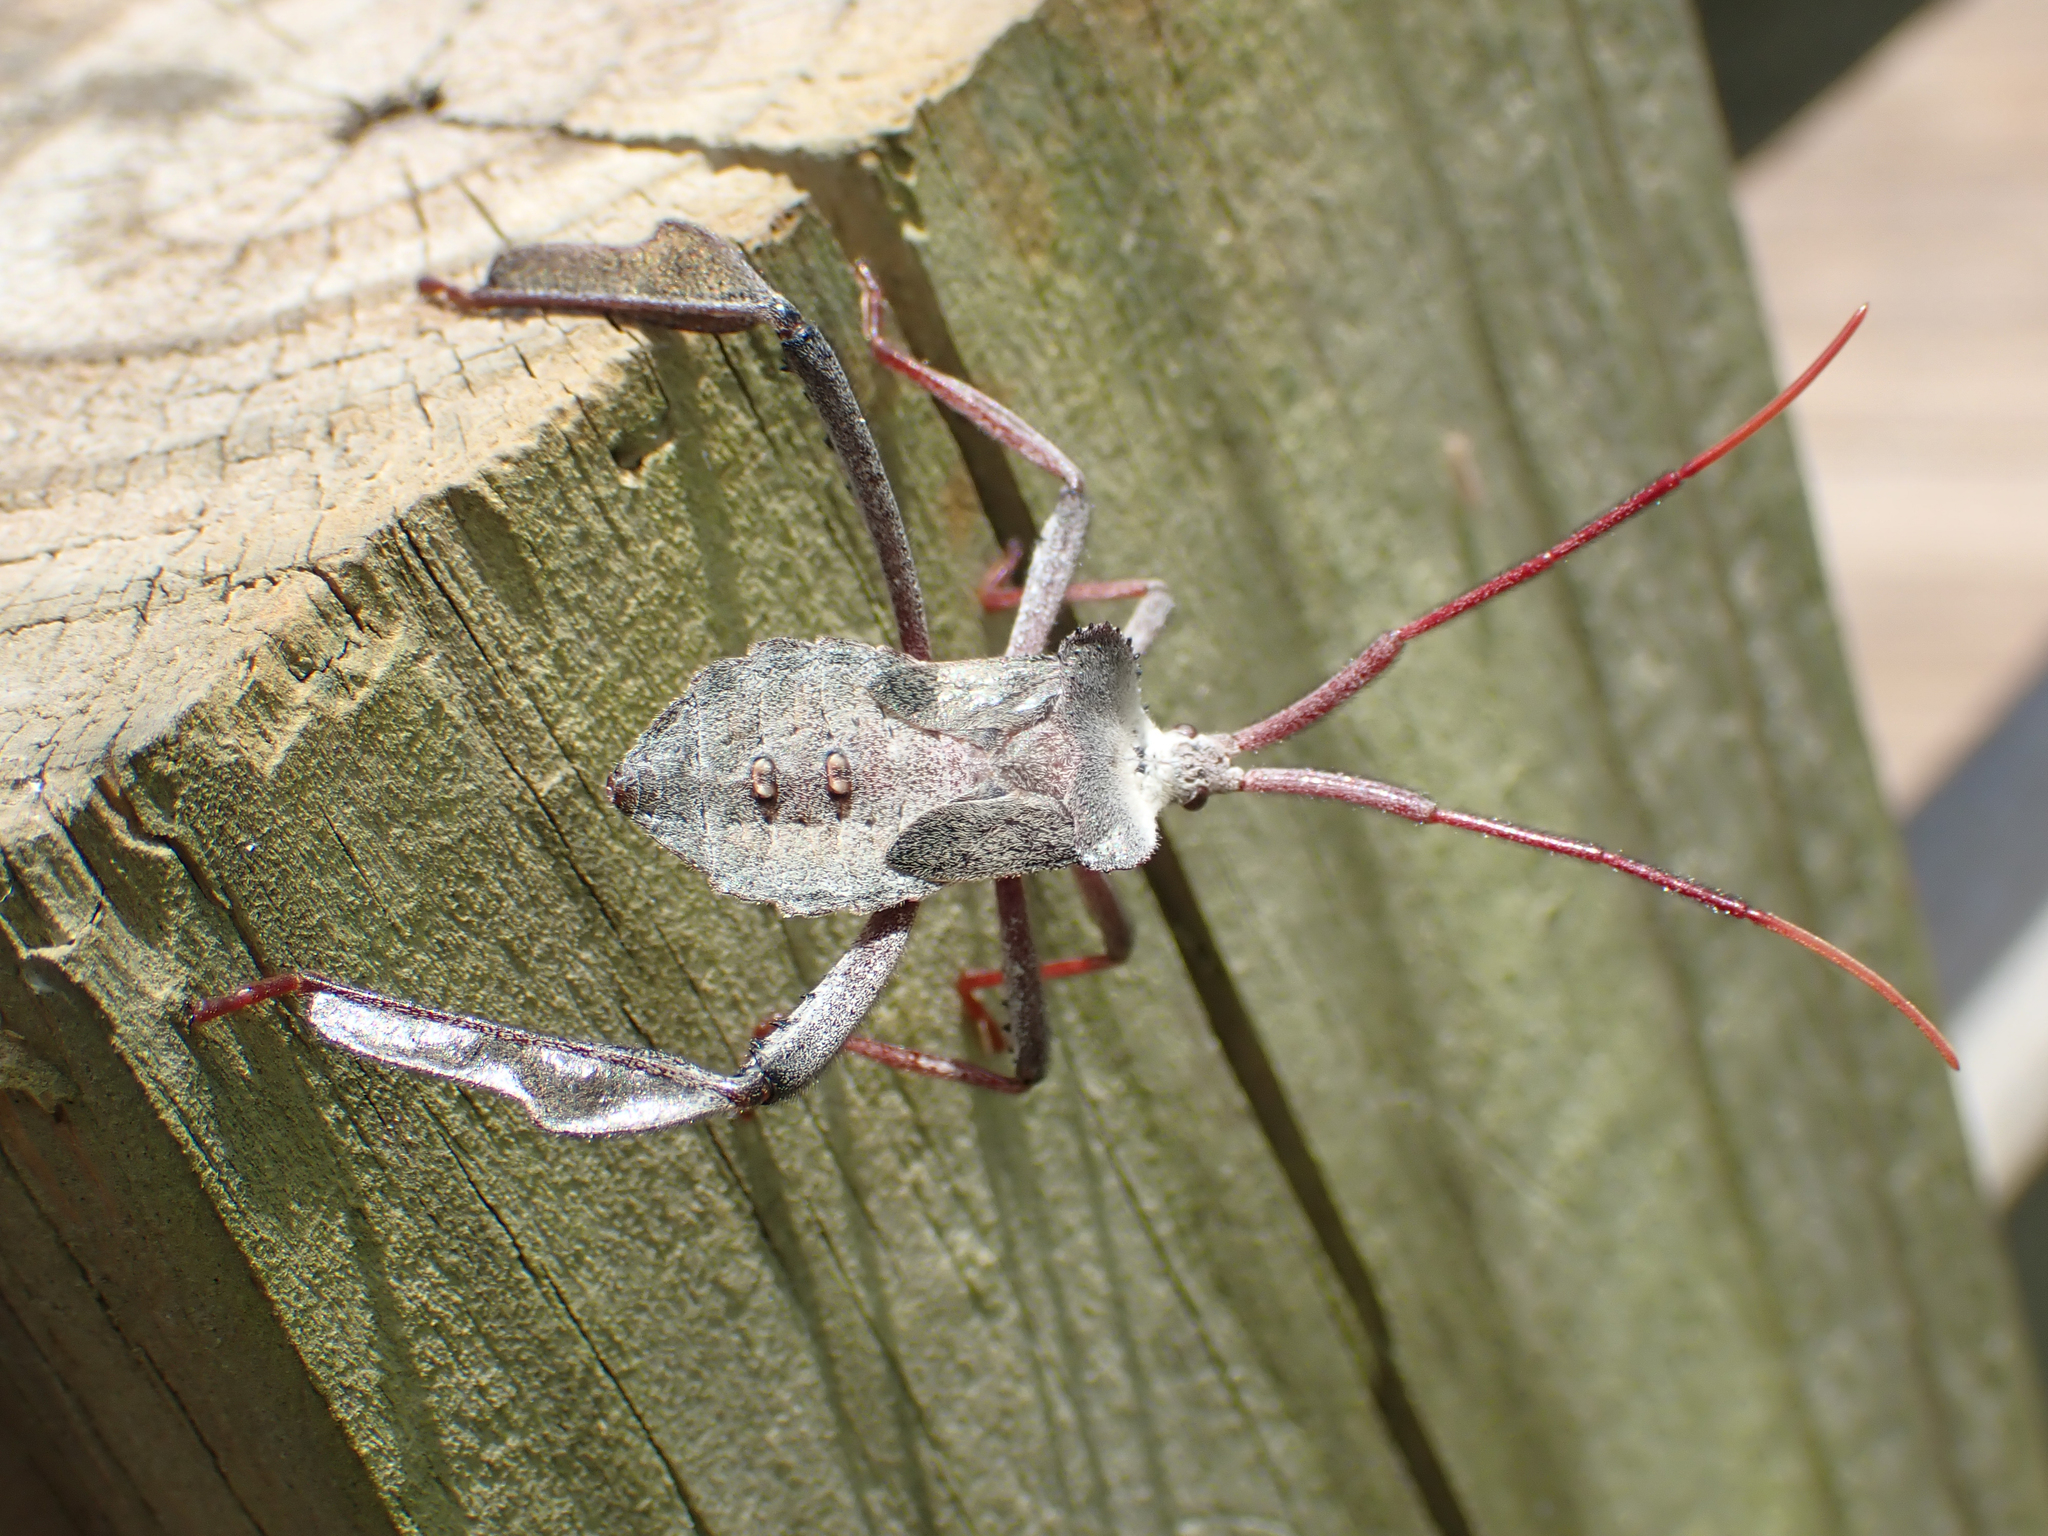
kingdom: Animalia
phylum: Arthropoda
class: Insecta
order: Hemiptera
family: Coreidae
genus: Acanthocephala
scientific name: Acanthocephala declivis
